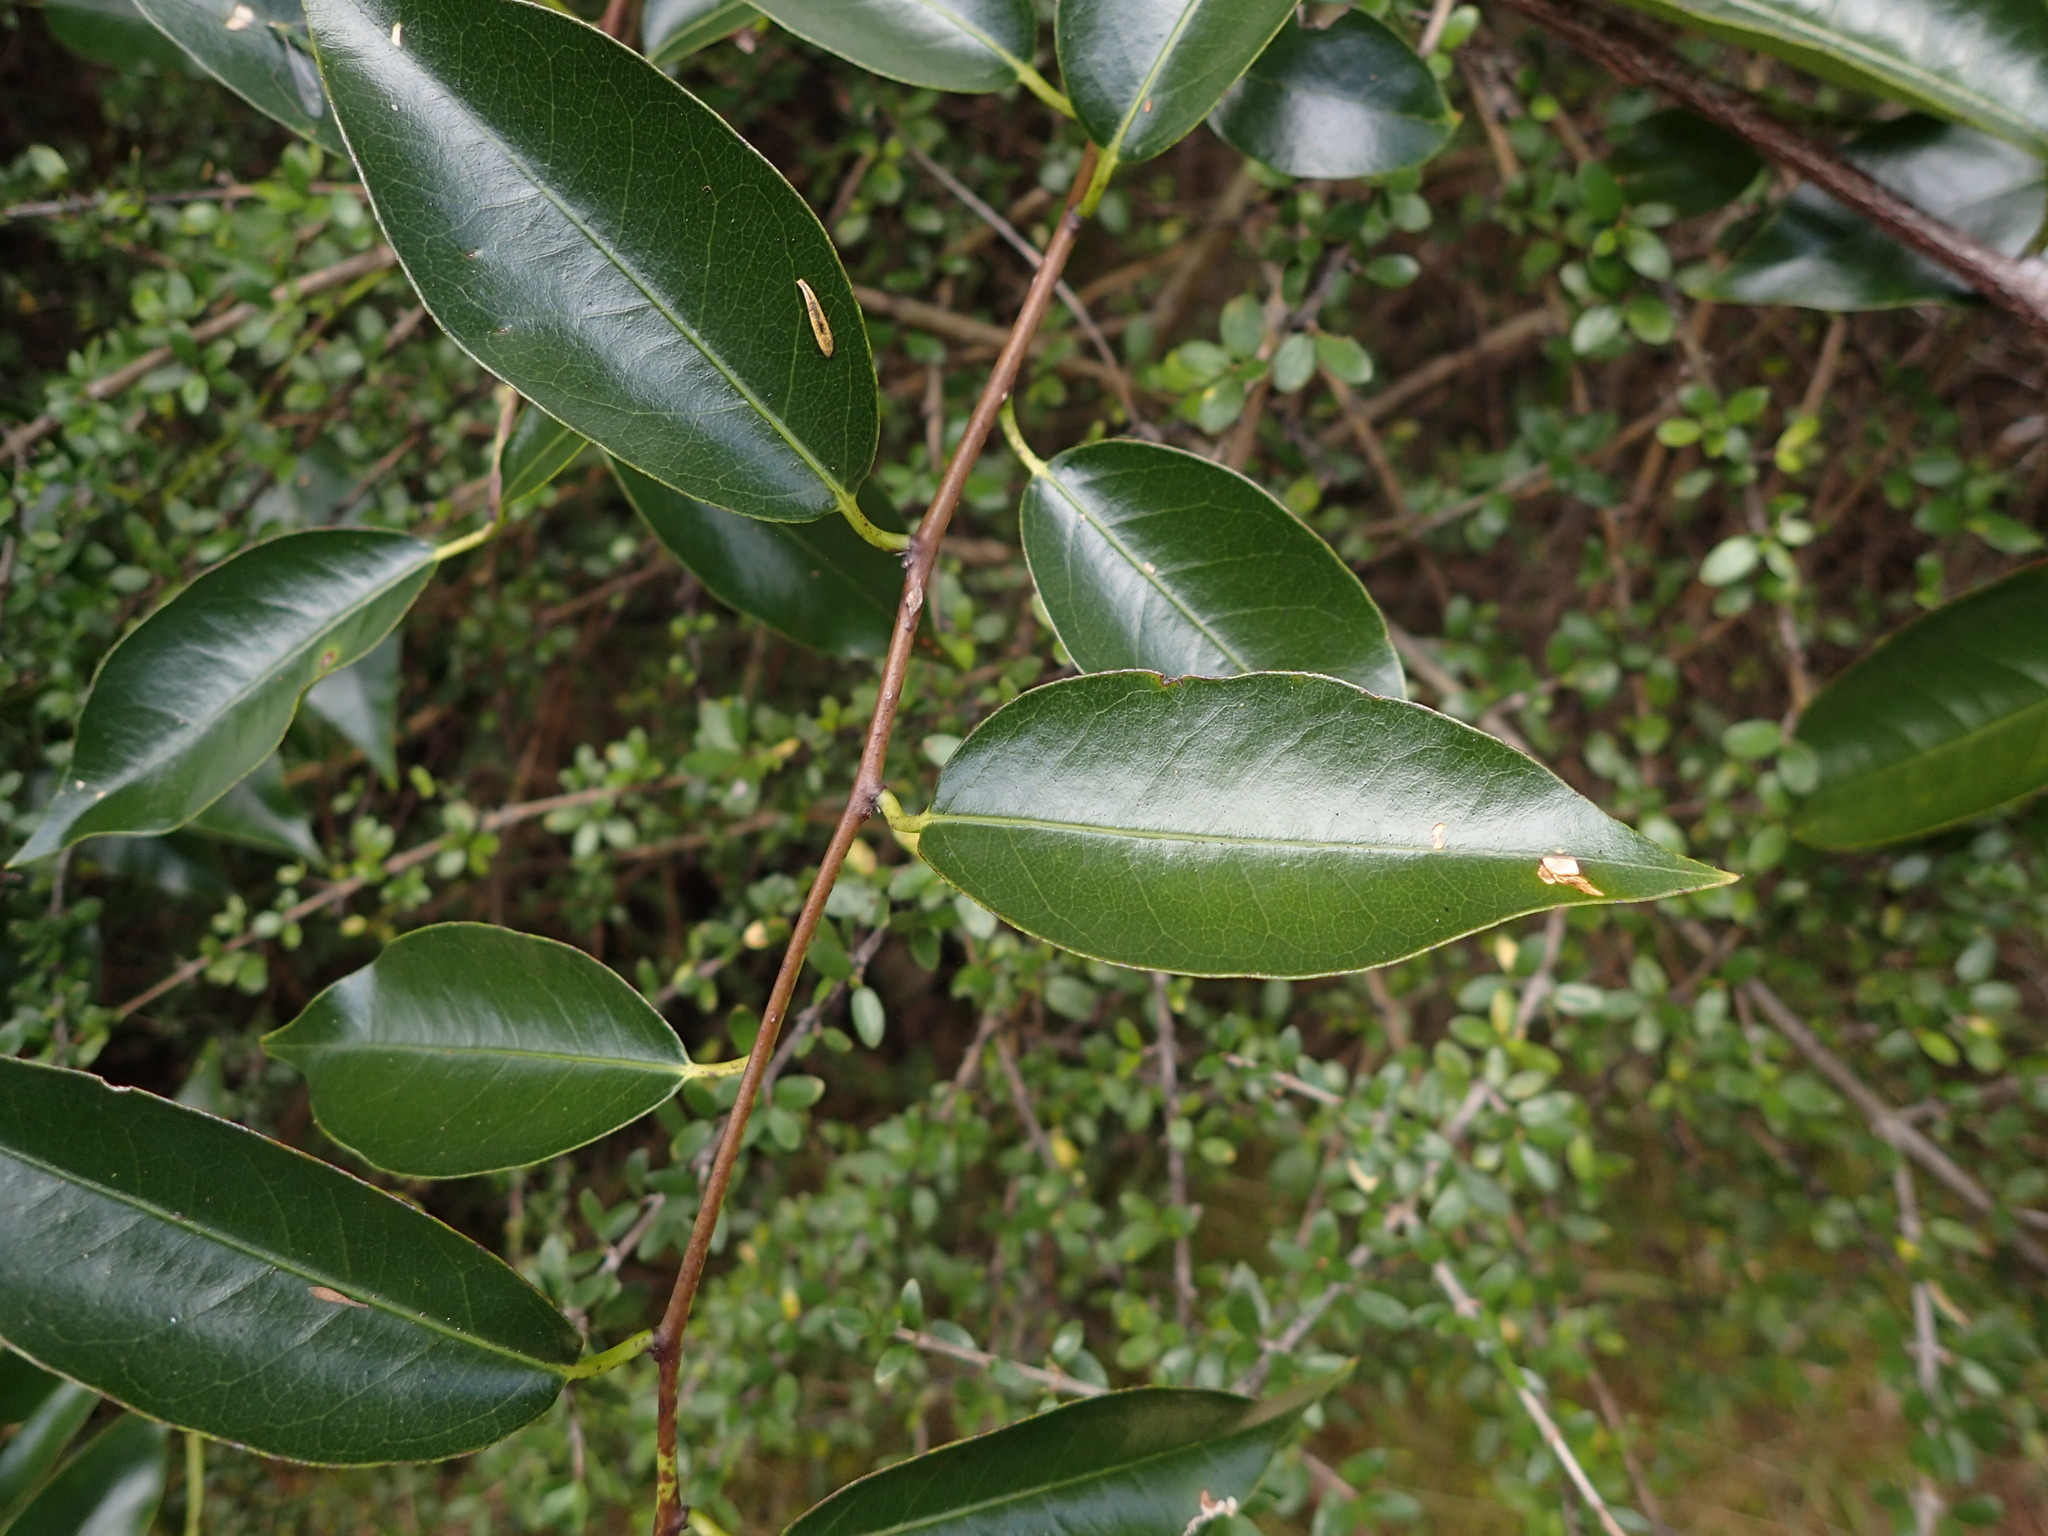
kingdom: Plantae
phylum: Tracheophyta
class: Magnoliopsida
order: Malpighiales
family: Passifloraceae
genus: Passiflora
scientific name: Passiflora tetrandra
